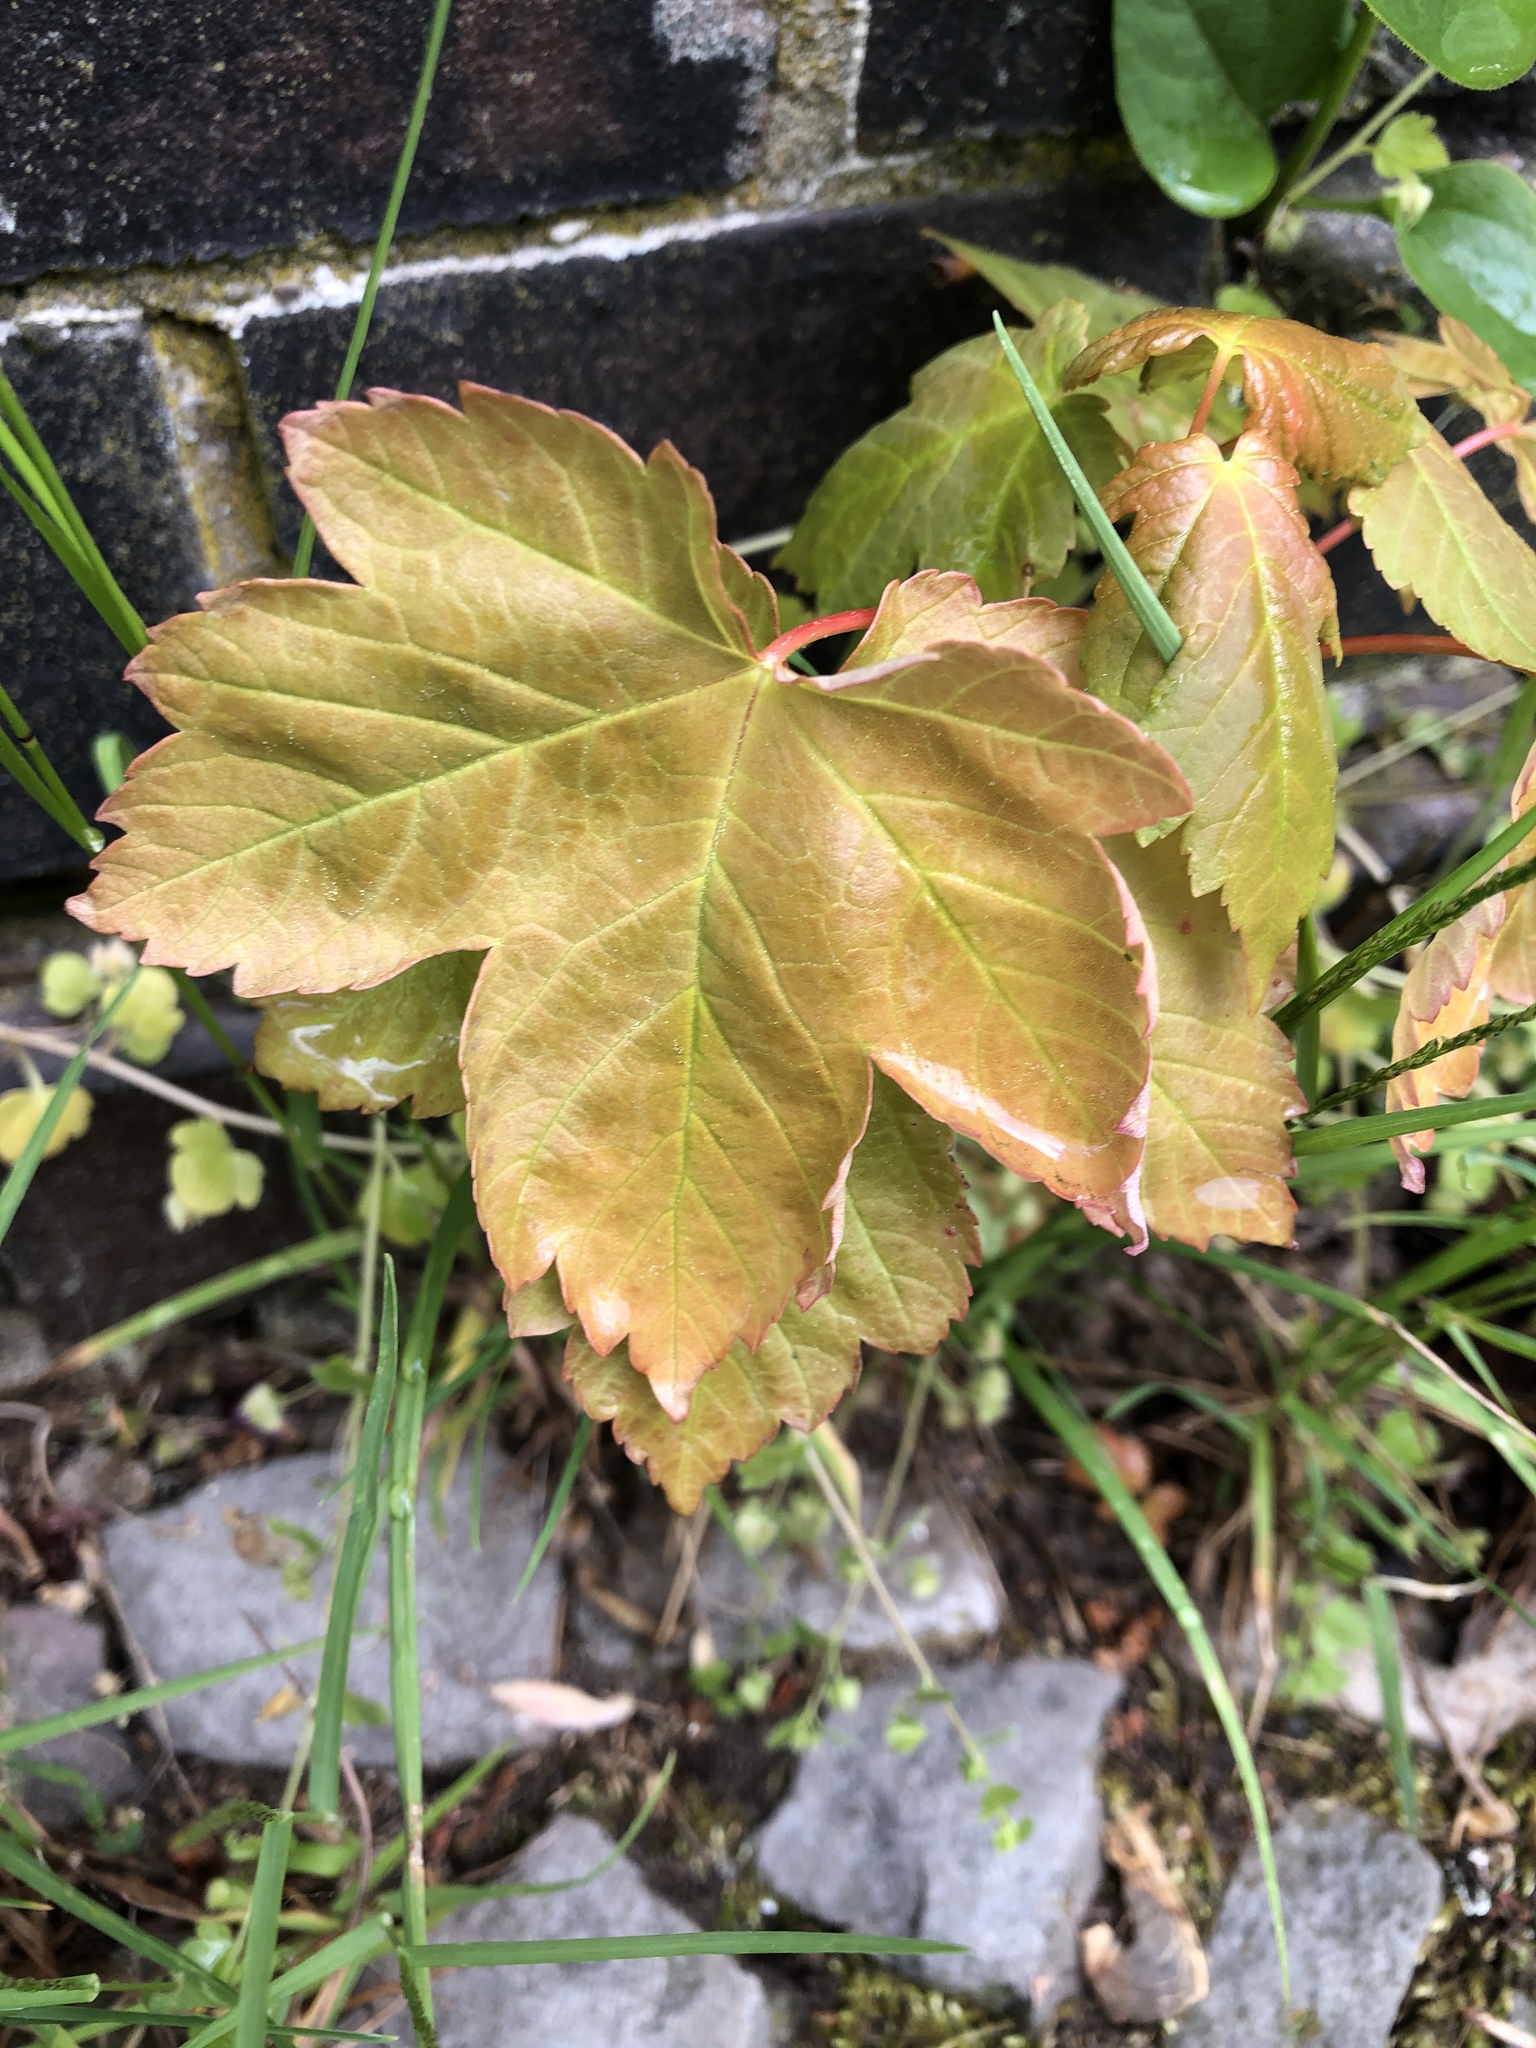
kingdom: Plantae
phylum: Tracheophyta
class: Magnoliopsida
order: Sapindales
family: Sapindaceae
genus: Acer
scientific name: Acer pseudoplatanus
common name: Sycamore
